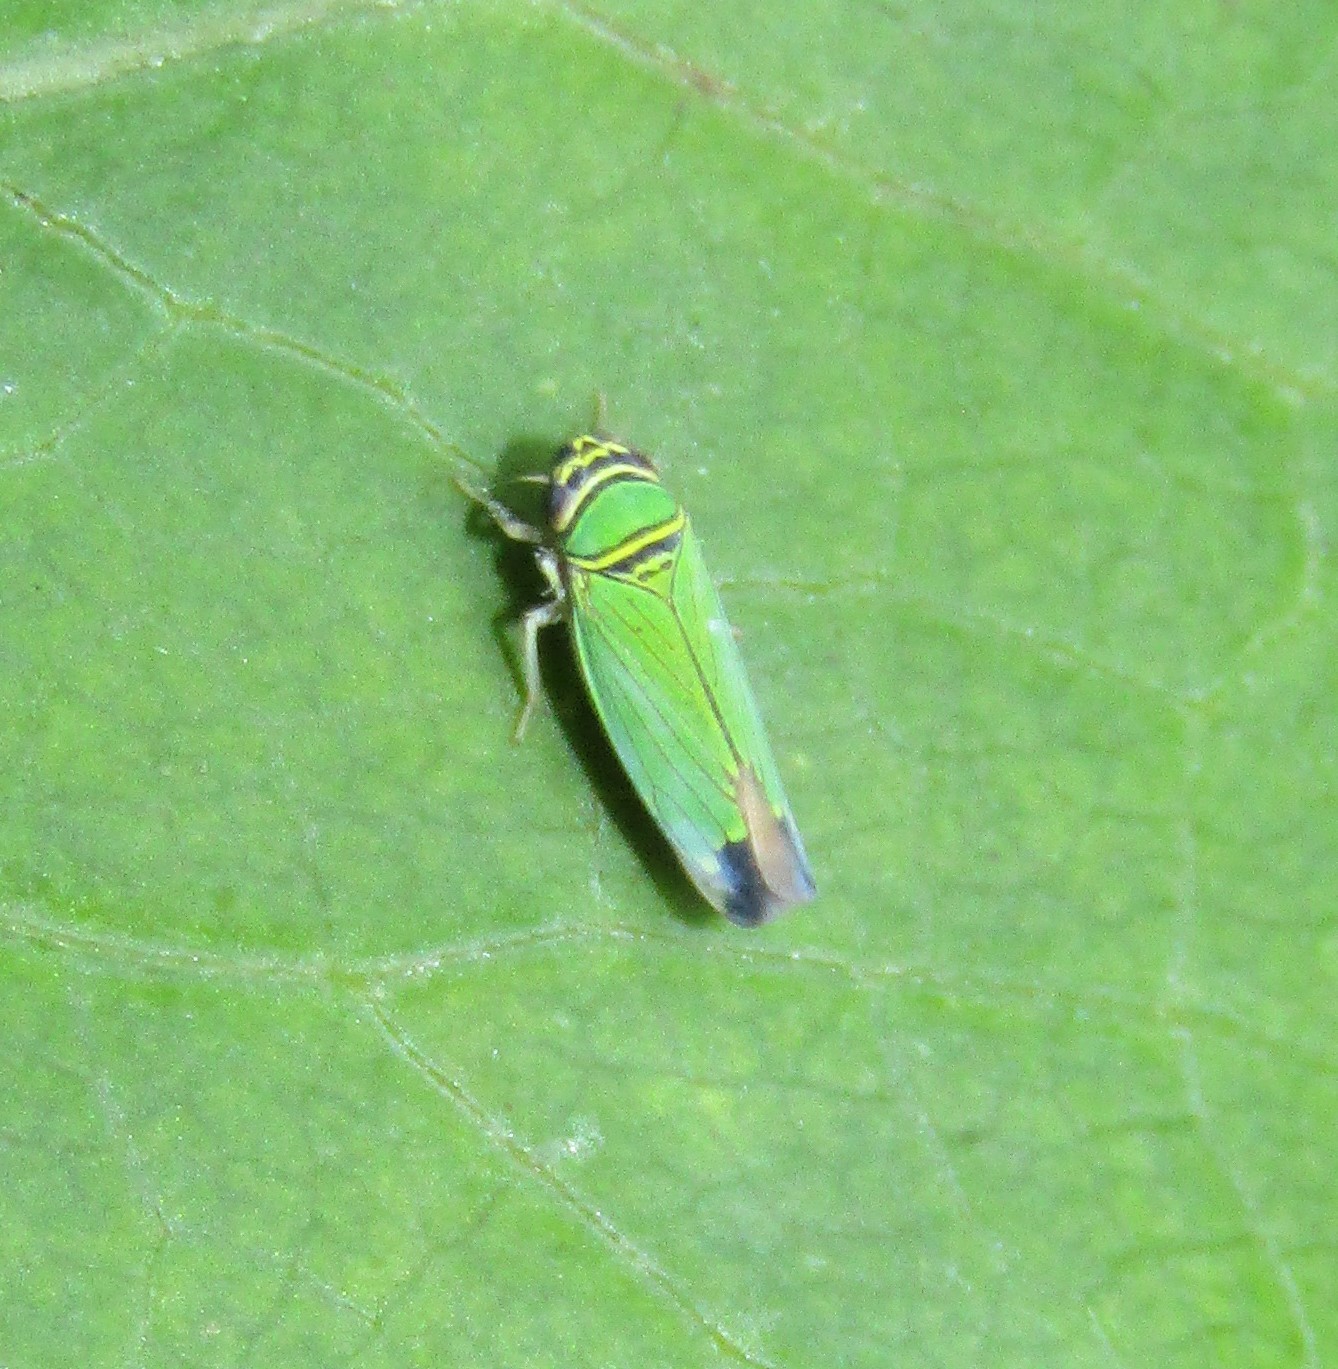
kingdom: Animalia
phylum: Arthropoda
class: Insecta
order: Hemiptera
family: Cicadellidae
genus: Tylozygus
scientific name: Tylozygus geometricus
